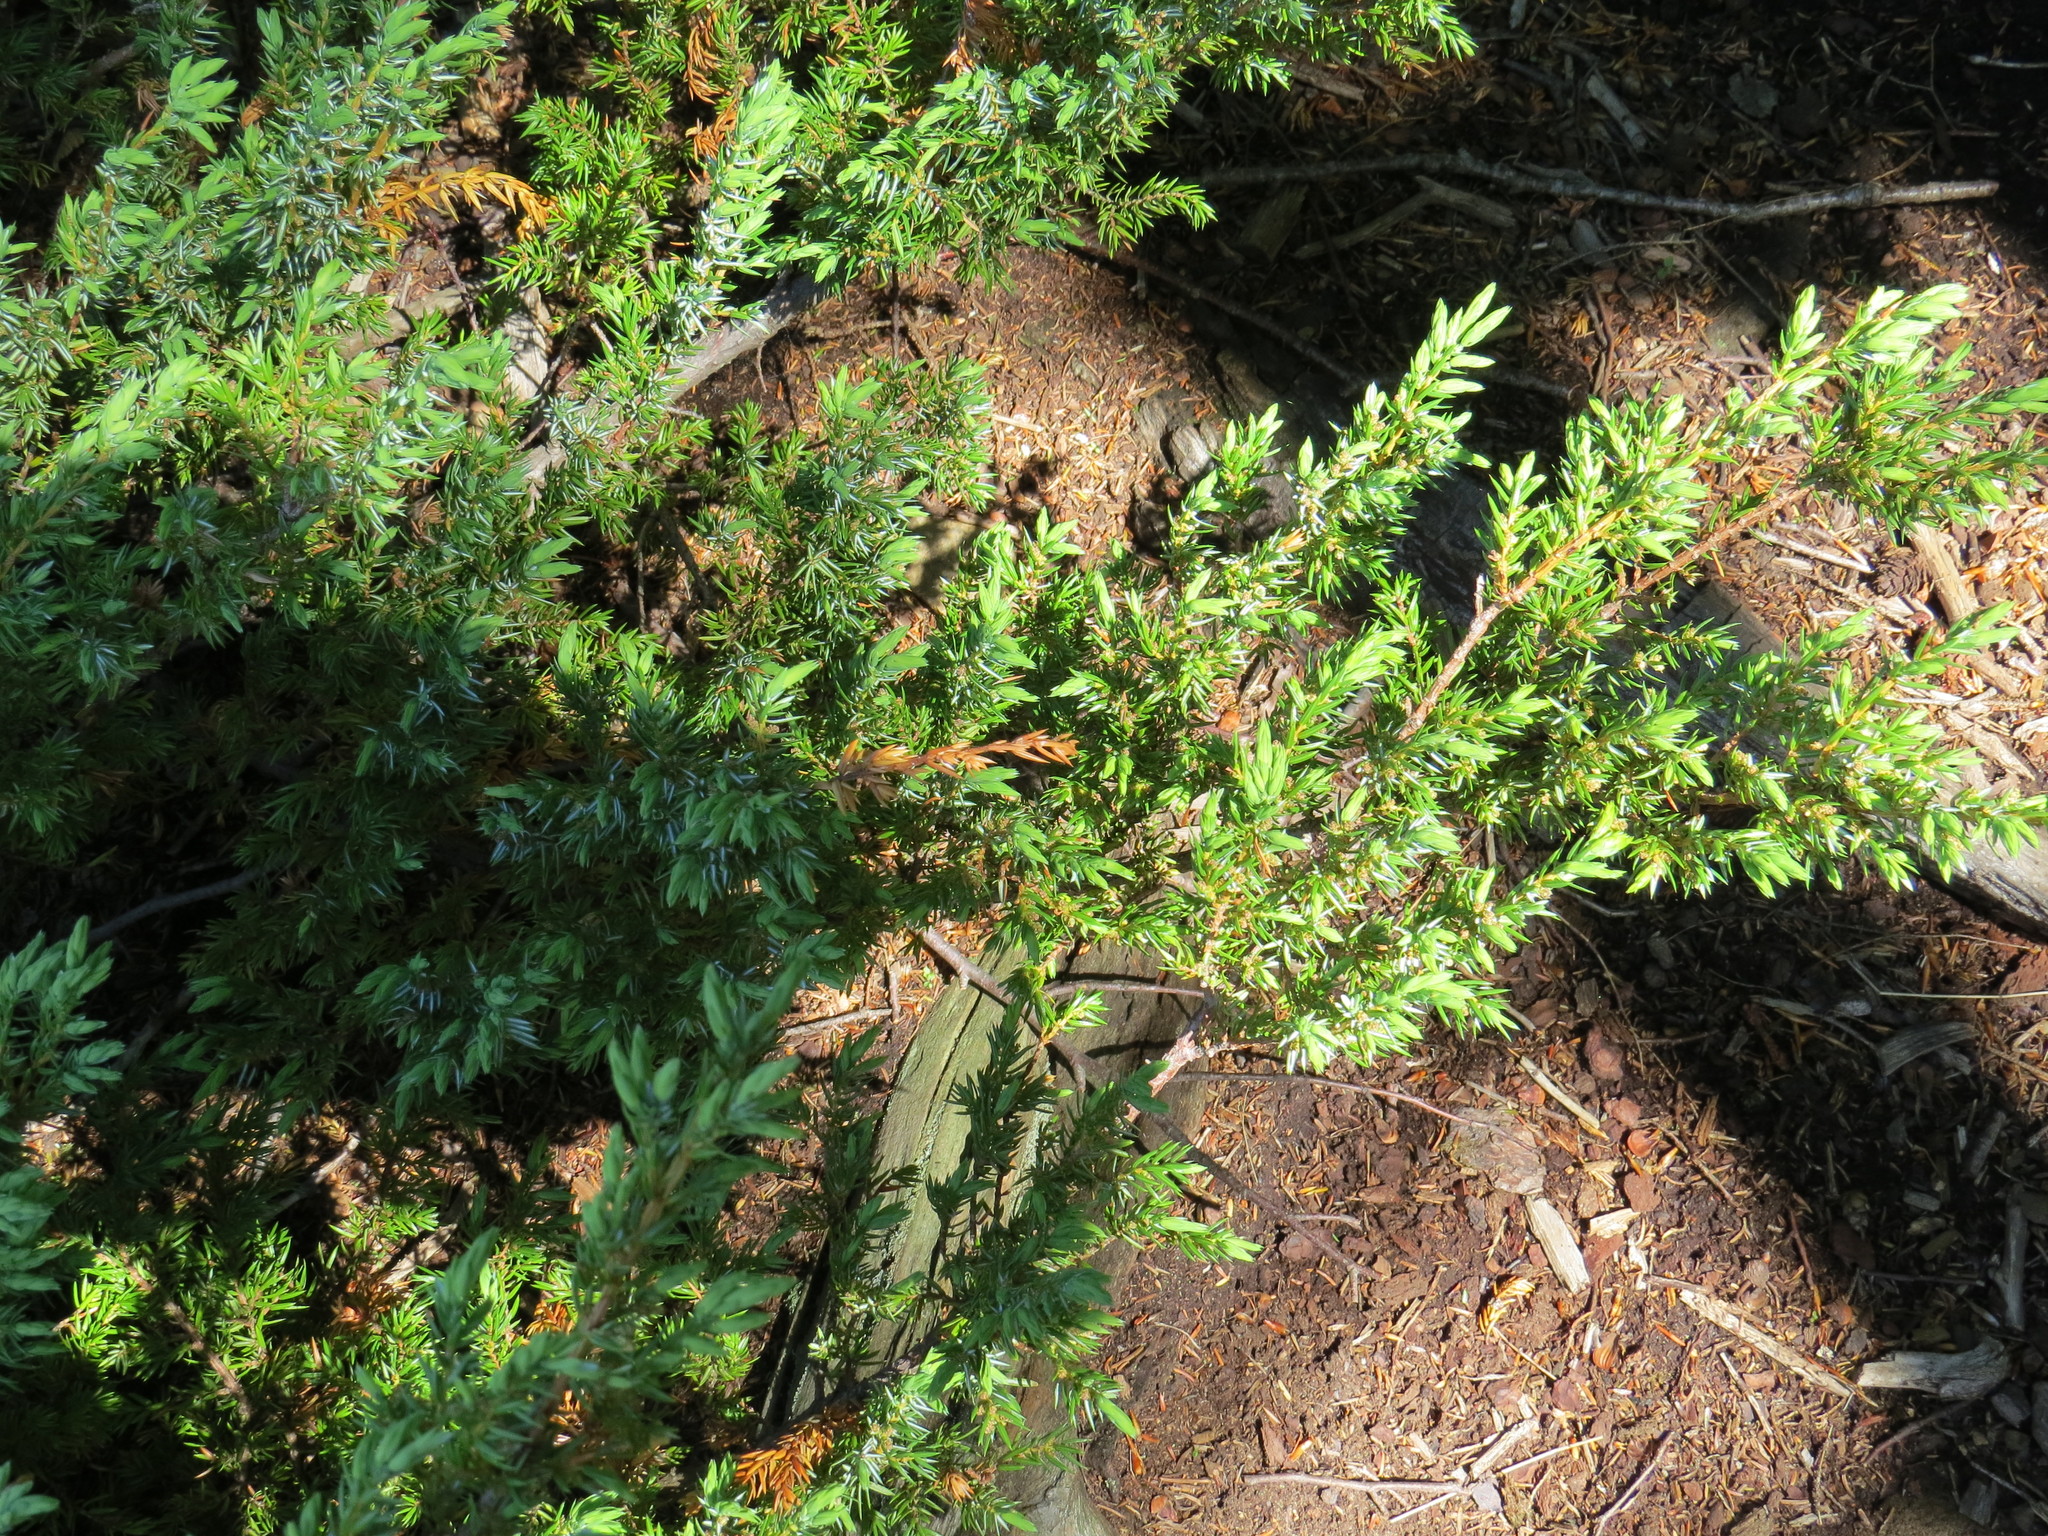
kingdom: Plantae
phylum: Tracheophyta
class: Pinopsida
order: Pinales
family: Cupressaceae
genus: Juniperus
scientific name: Juniperus communis
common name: Common juniper
